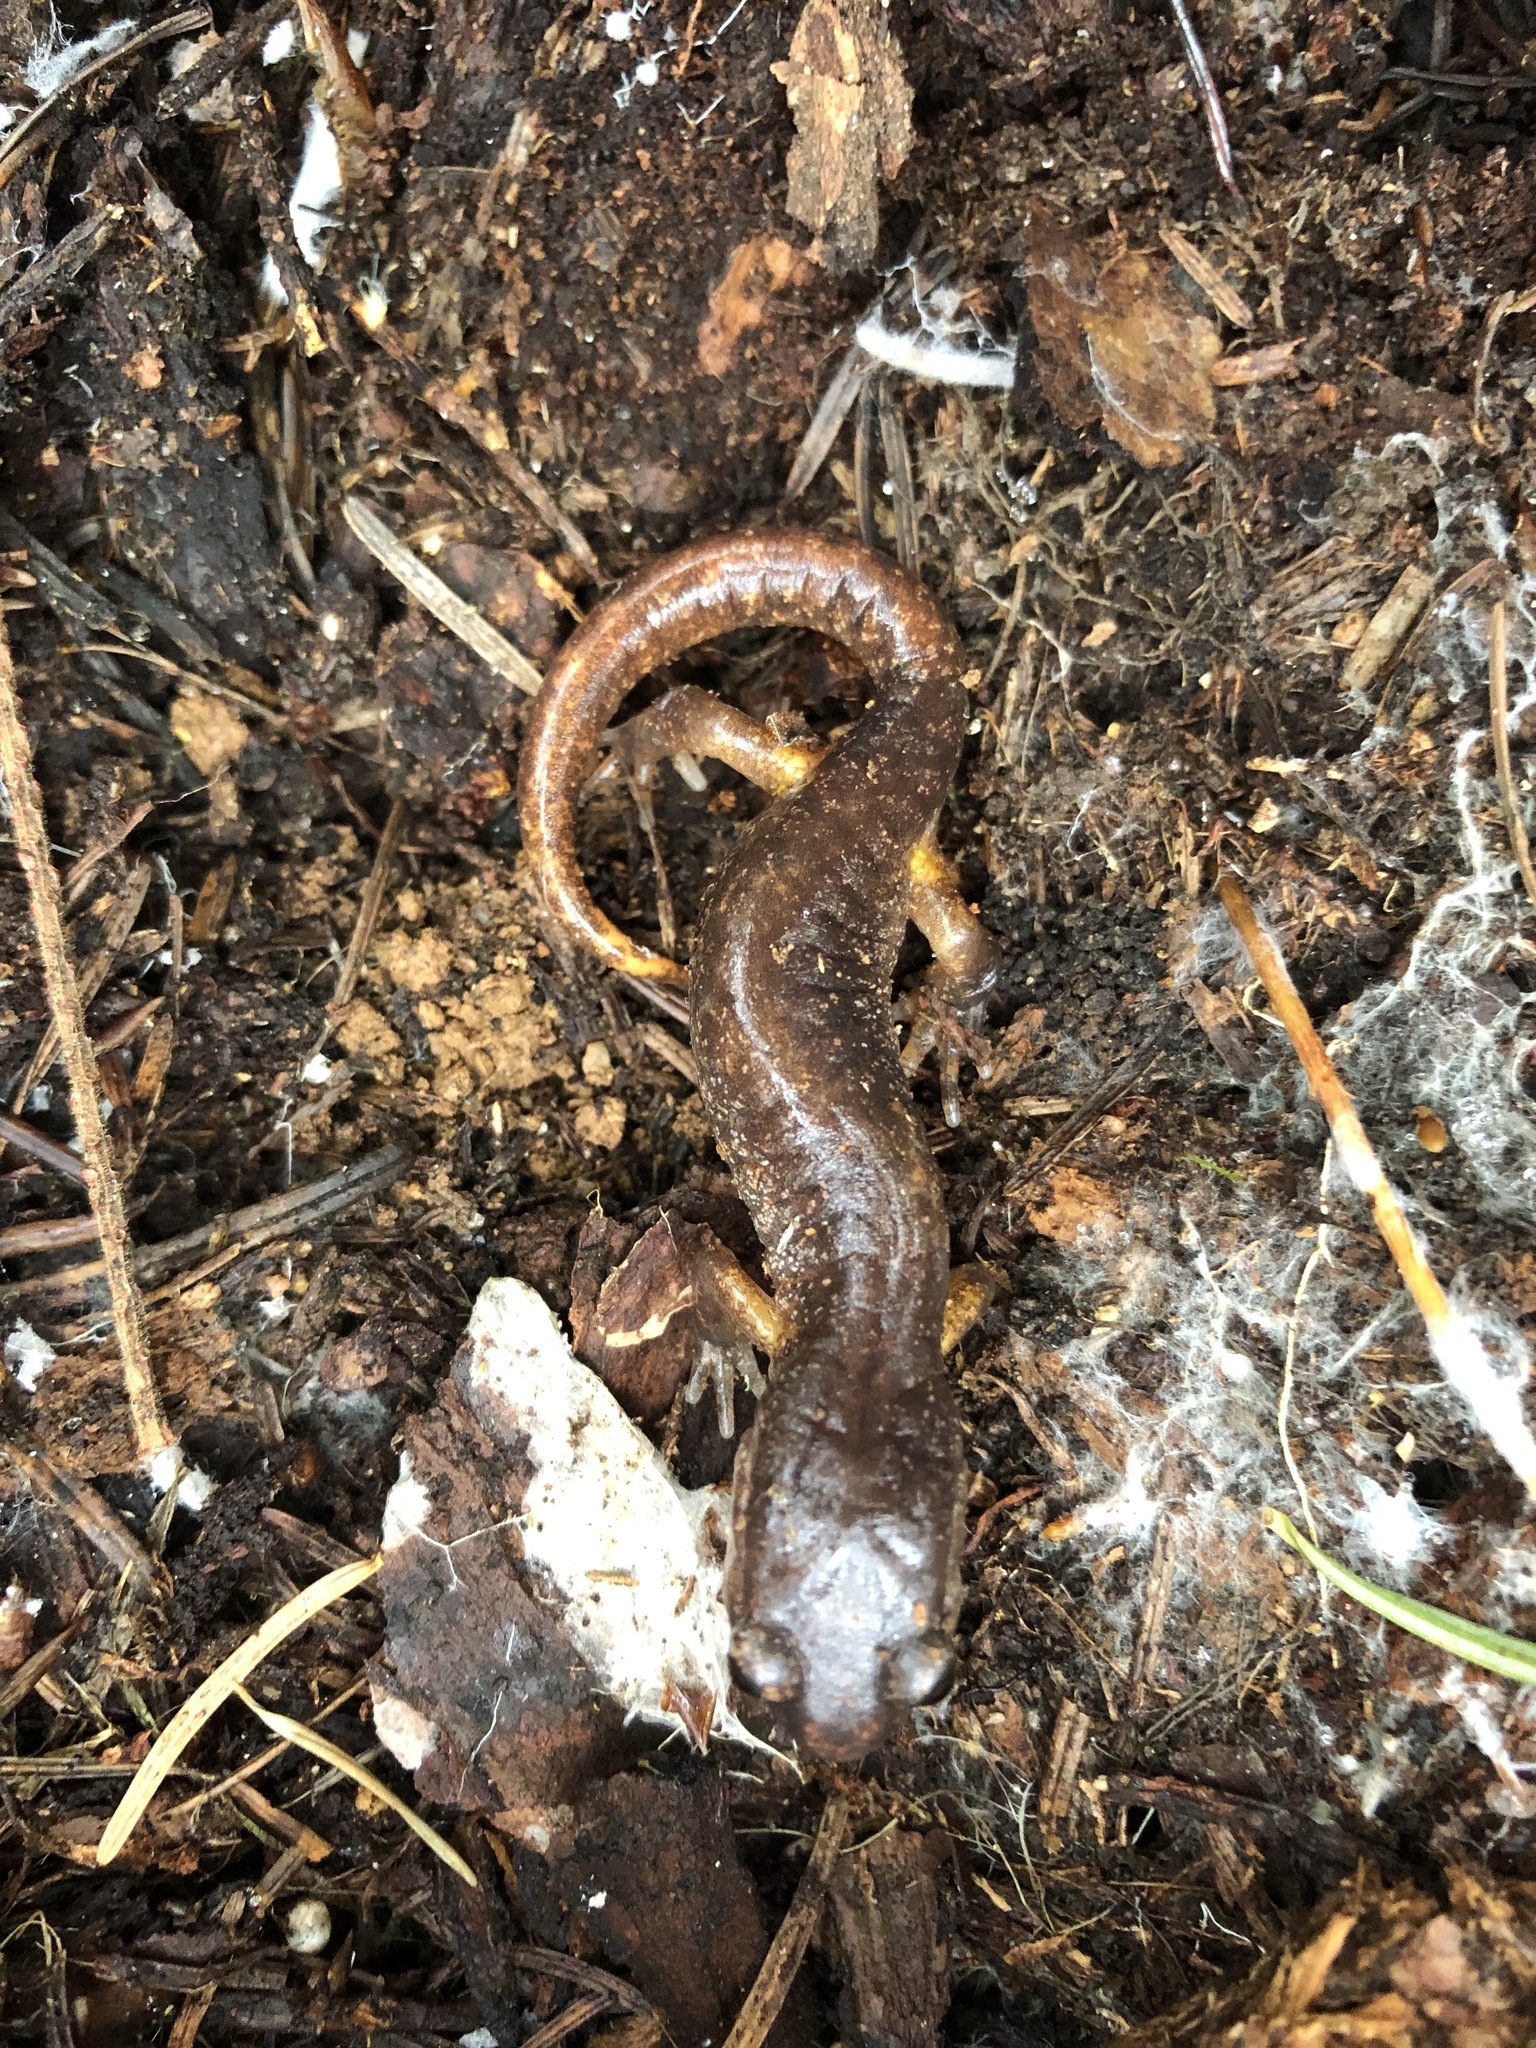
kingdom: Animalia
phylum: Chordata
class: Amphibia
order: Caudata
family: Plethodontidae
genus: Ensatina
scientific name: Ensatina eschscholtzii
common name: Ensatina
